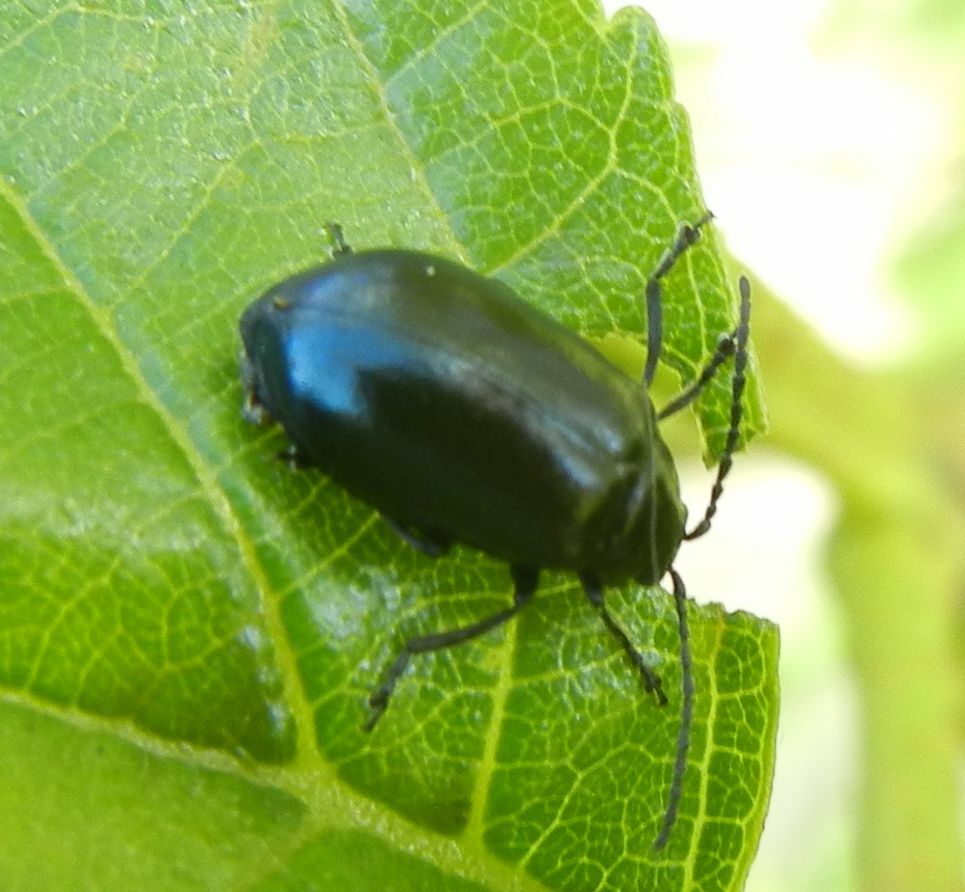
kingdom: Animalia
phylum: Arthropoda
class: Insecta
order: Coleoptera
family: Chrysomelidae
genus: Agelastica
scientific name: Agelastica alni
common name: Alder leaf beetle
